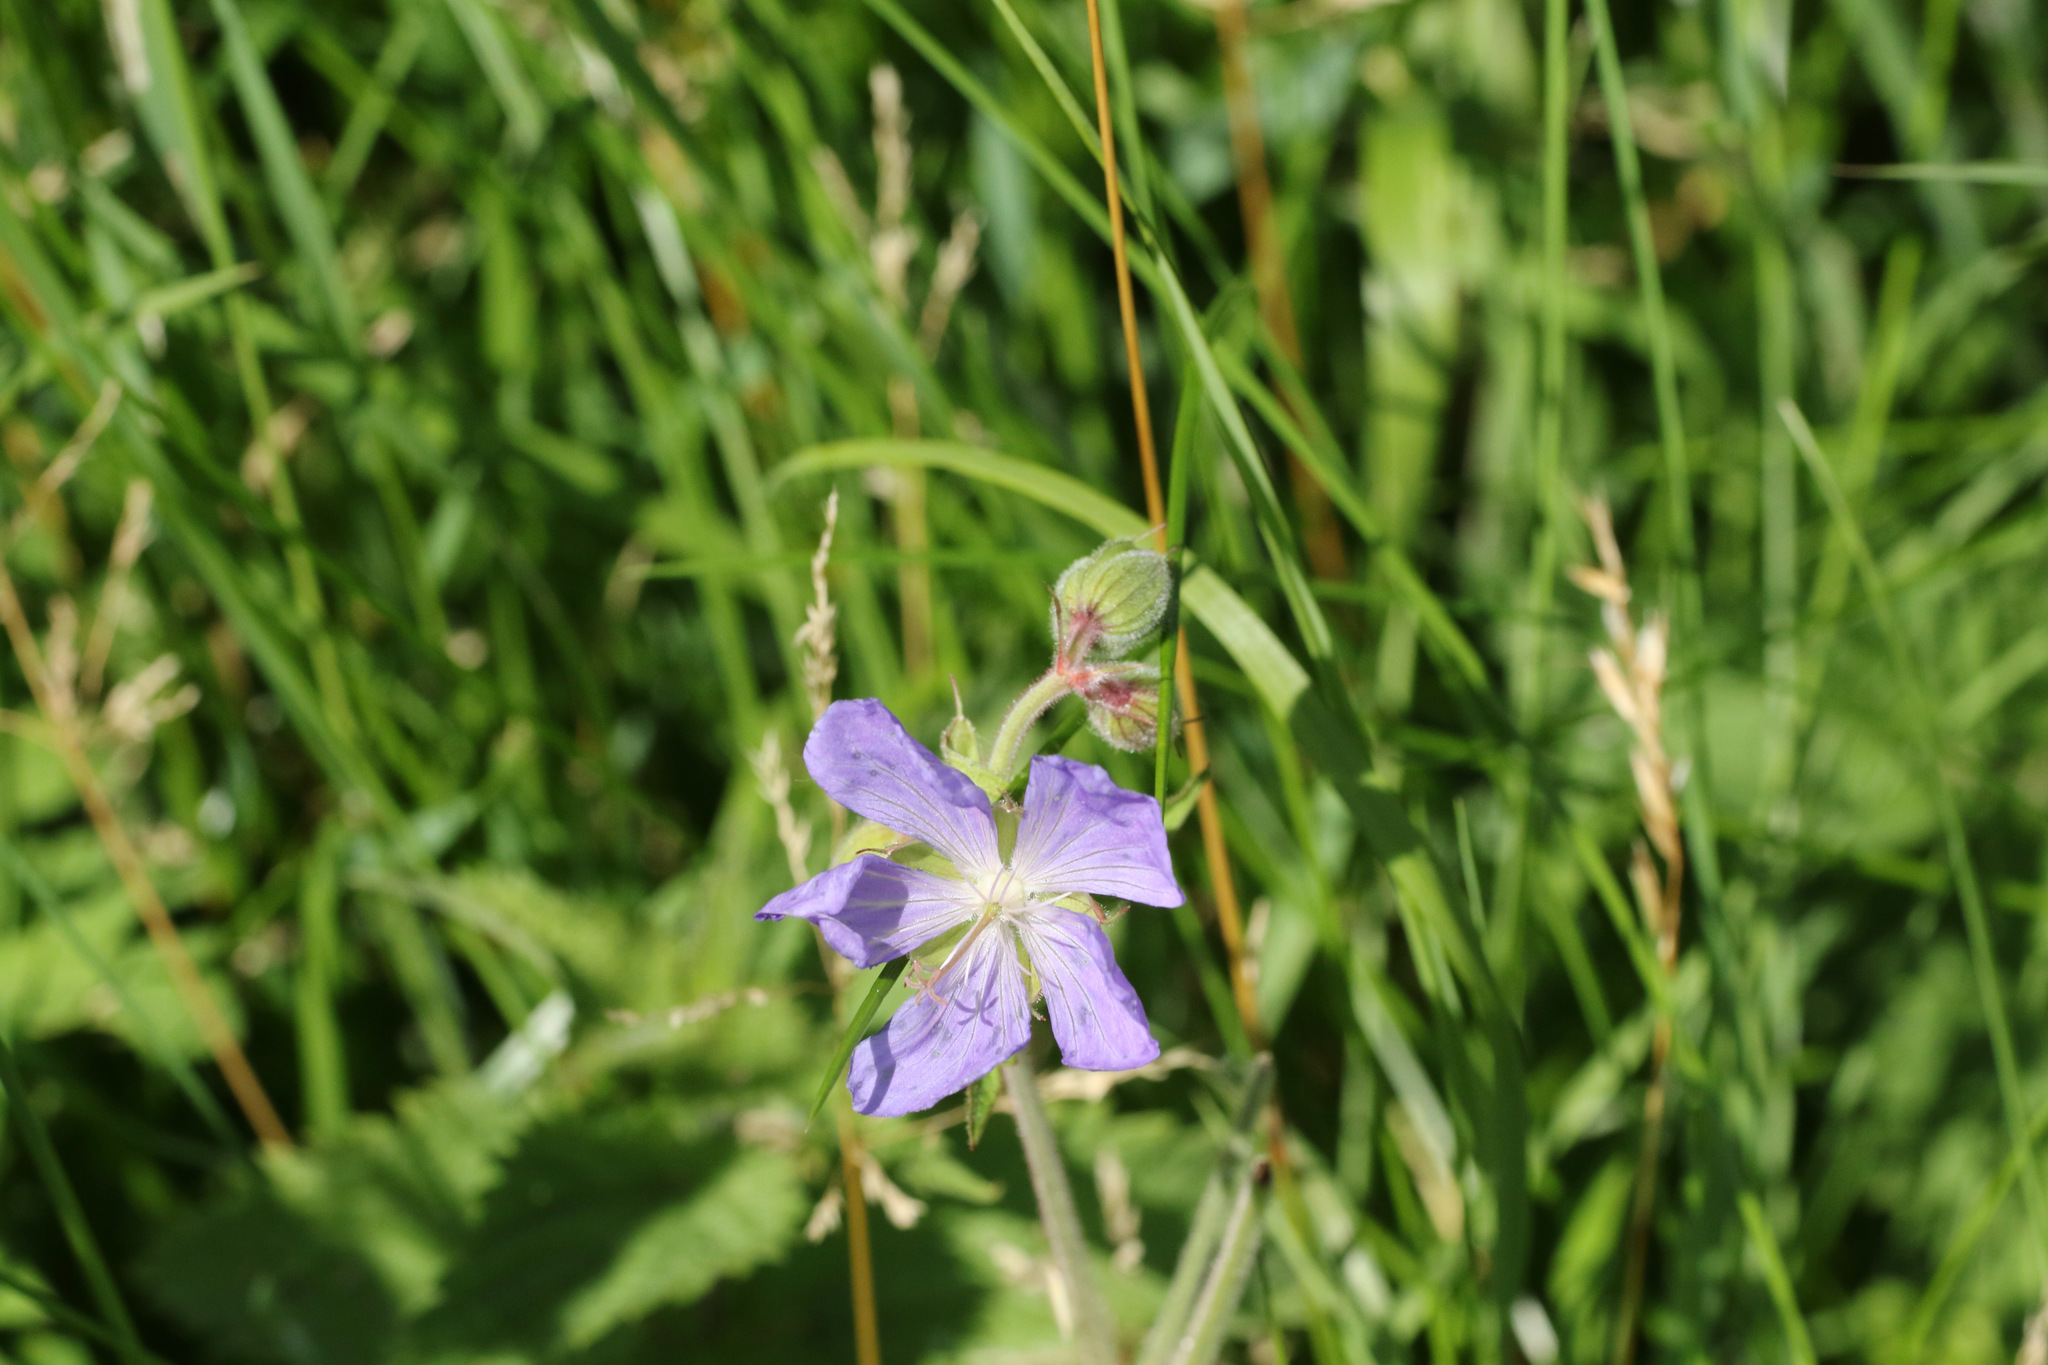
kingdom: Plantae
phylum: Tracheophyta
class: Magnoliopsida
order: Geraniales
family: Geraniaceae
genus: Geranium
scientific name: Geranium pratense
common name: Meadow crane's-bill
